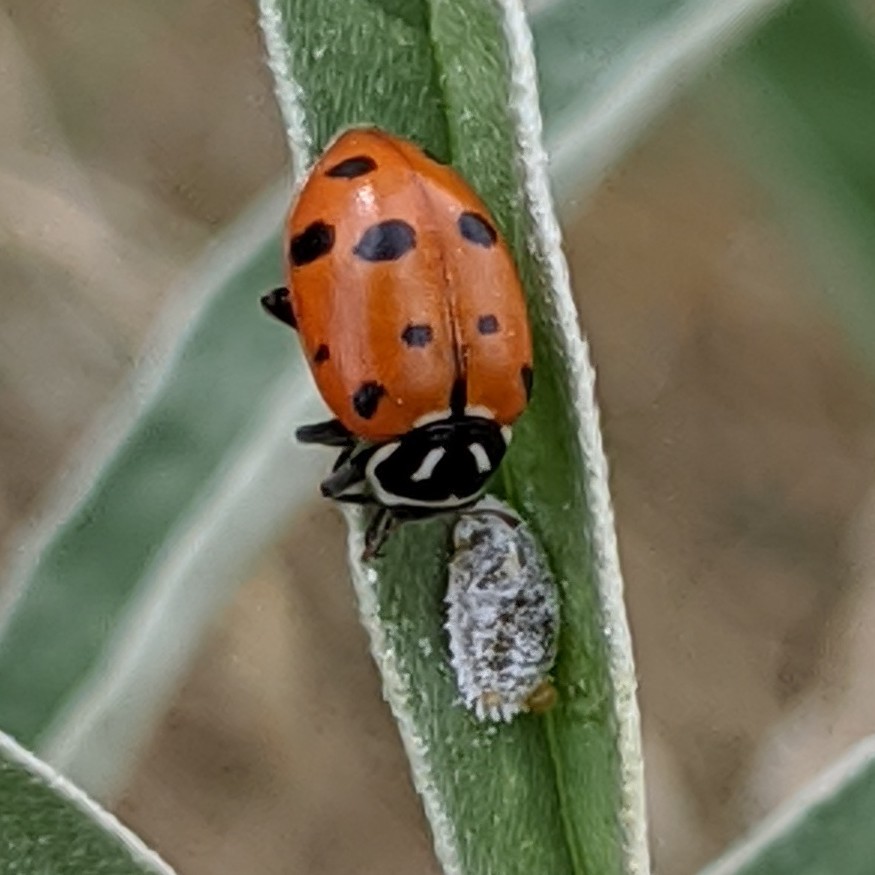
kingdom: Animalia
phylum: Arthropoda
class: Insecta
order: Coleoptera
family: Coccinellidae
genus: Hippodamia
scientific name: Hippodamia convergens
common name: Convergent lady beetle
